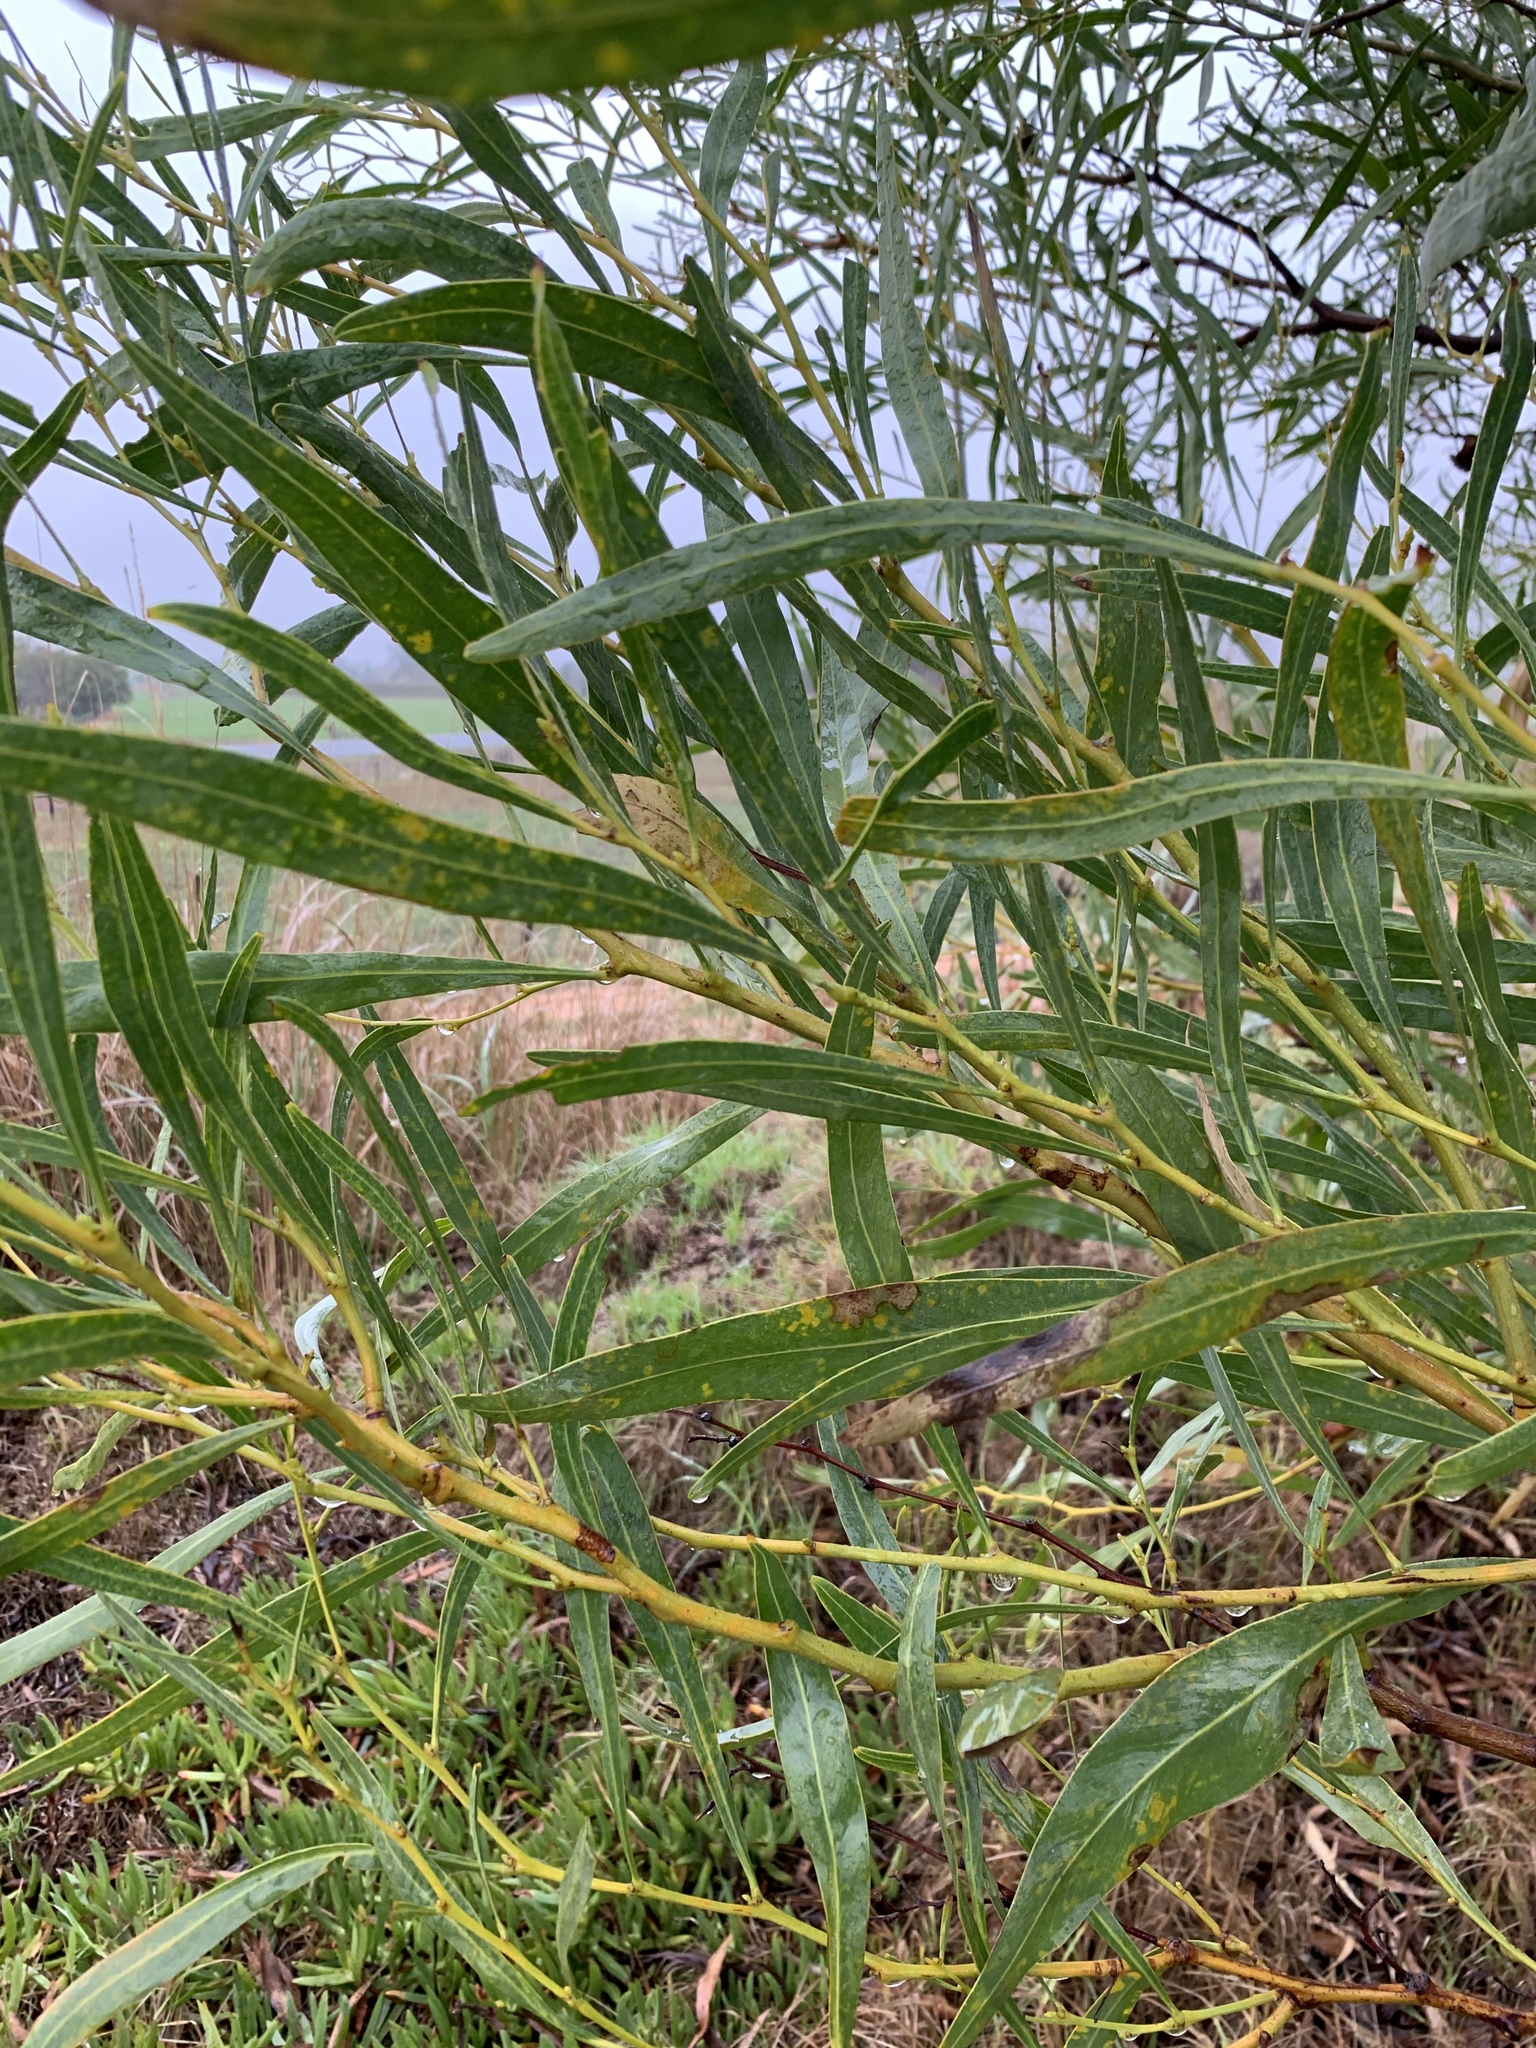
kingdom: Plantae
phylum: Tracheophyta
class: Magnoliopsida
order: Fabales
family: Fabaceae
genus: Acacia
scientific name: Acacia saligna
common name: Orange wattle
